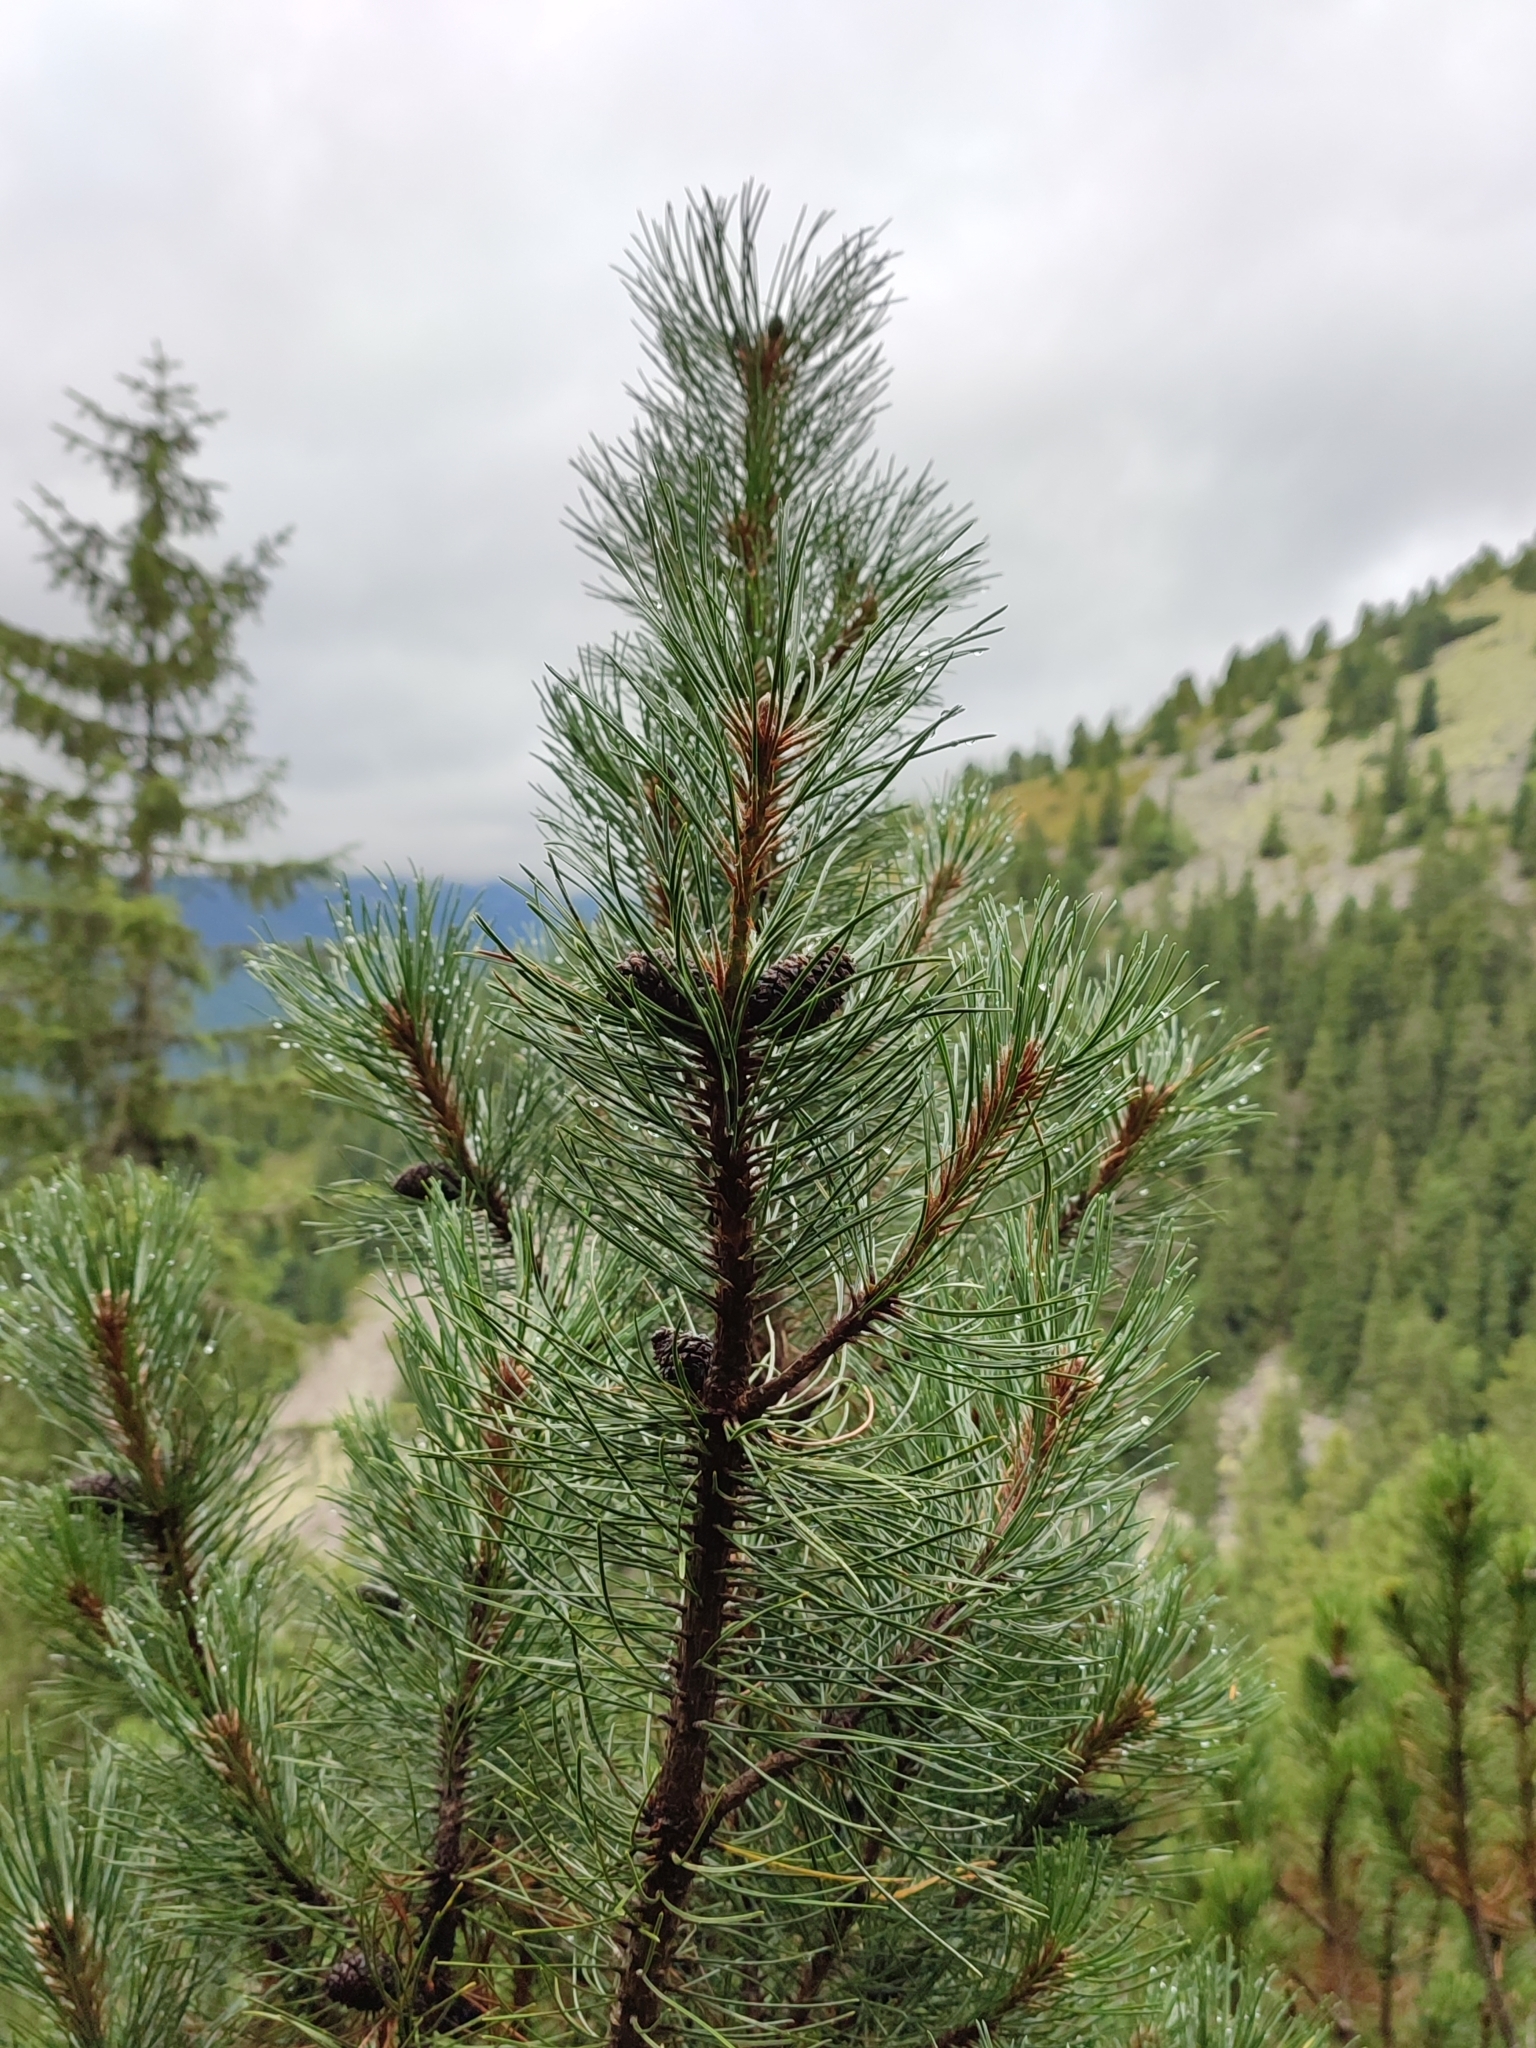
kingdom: Plantae
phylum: Tracheophyta
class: Pinopsida
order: Pinales
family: Pinaceae
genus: Pinus
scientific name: Pinus mugo
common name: Mugo pine
